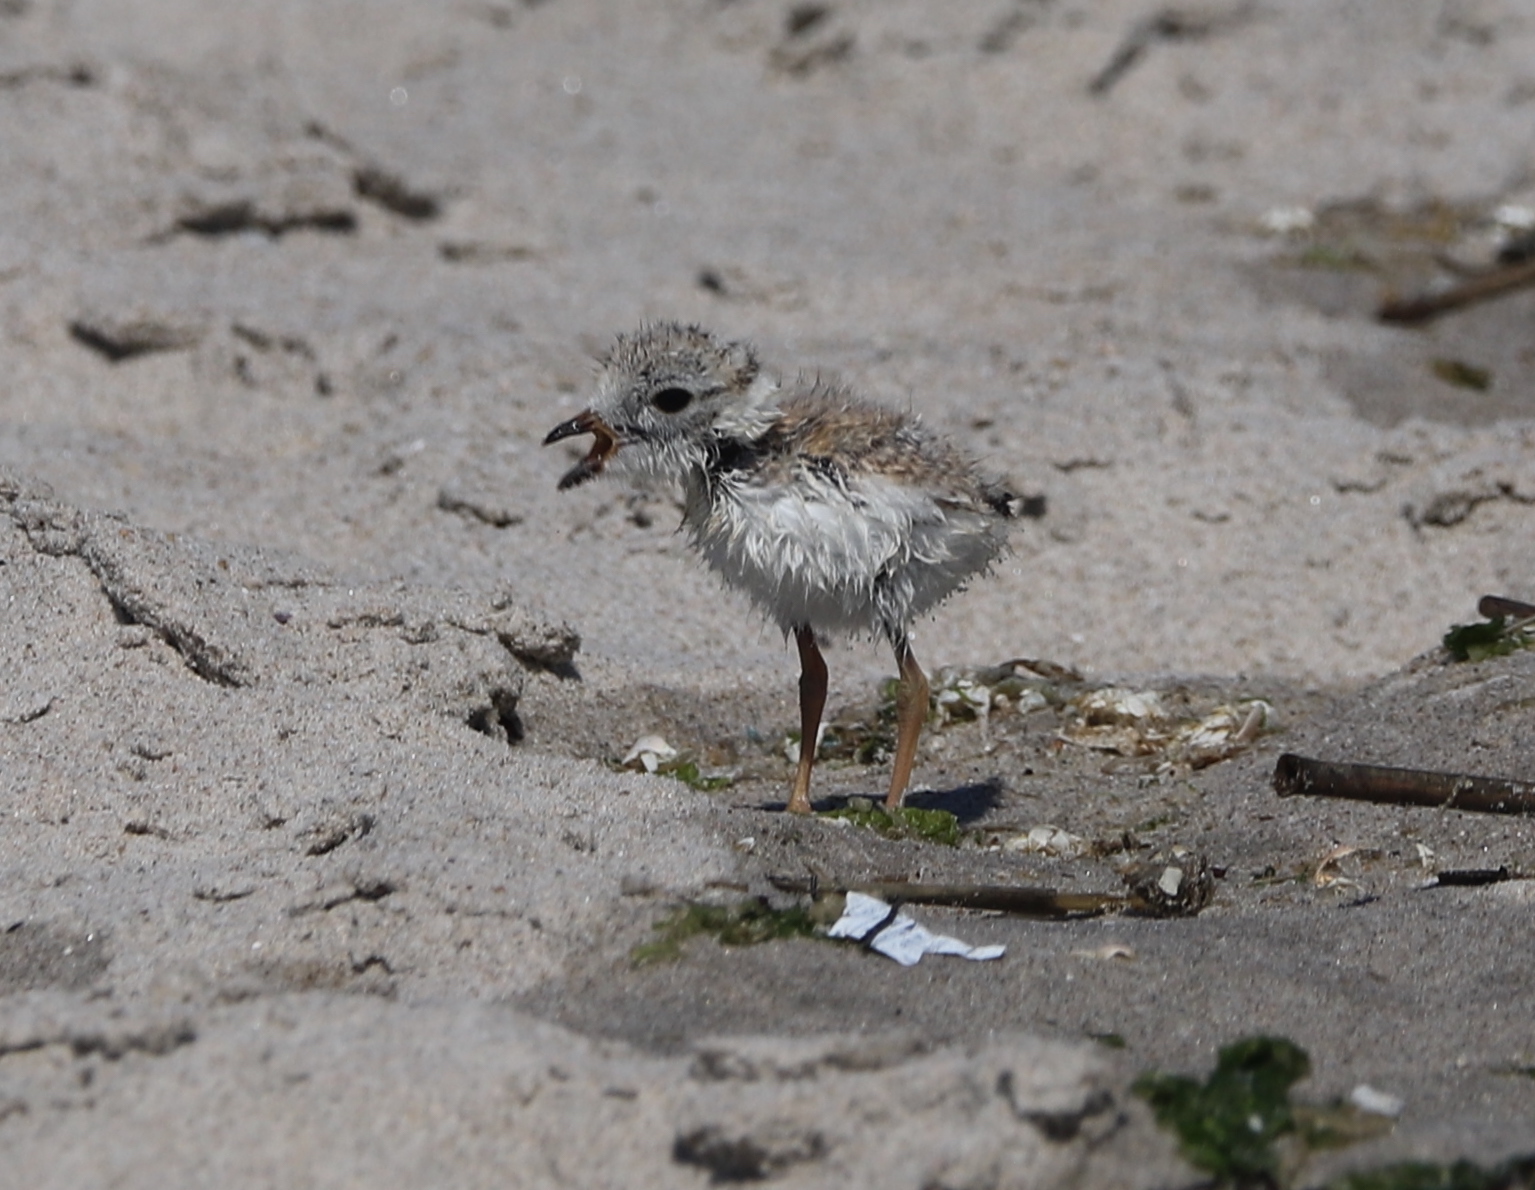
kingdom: Animalia
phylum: Chordata
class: Aves
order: Charadriiformes
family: Charadriidae
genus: Charadrius
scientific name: Charadrius melodus
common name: Piping plover
